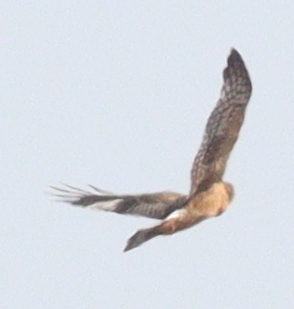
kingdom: Animalia
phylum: Chordata
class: Aves
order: Accipitriformes
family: Accipitridae
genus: Circus
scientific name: Circus cyaneus
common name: Hen harrier
